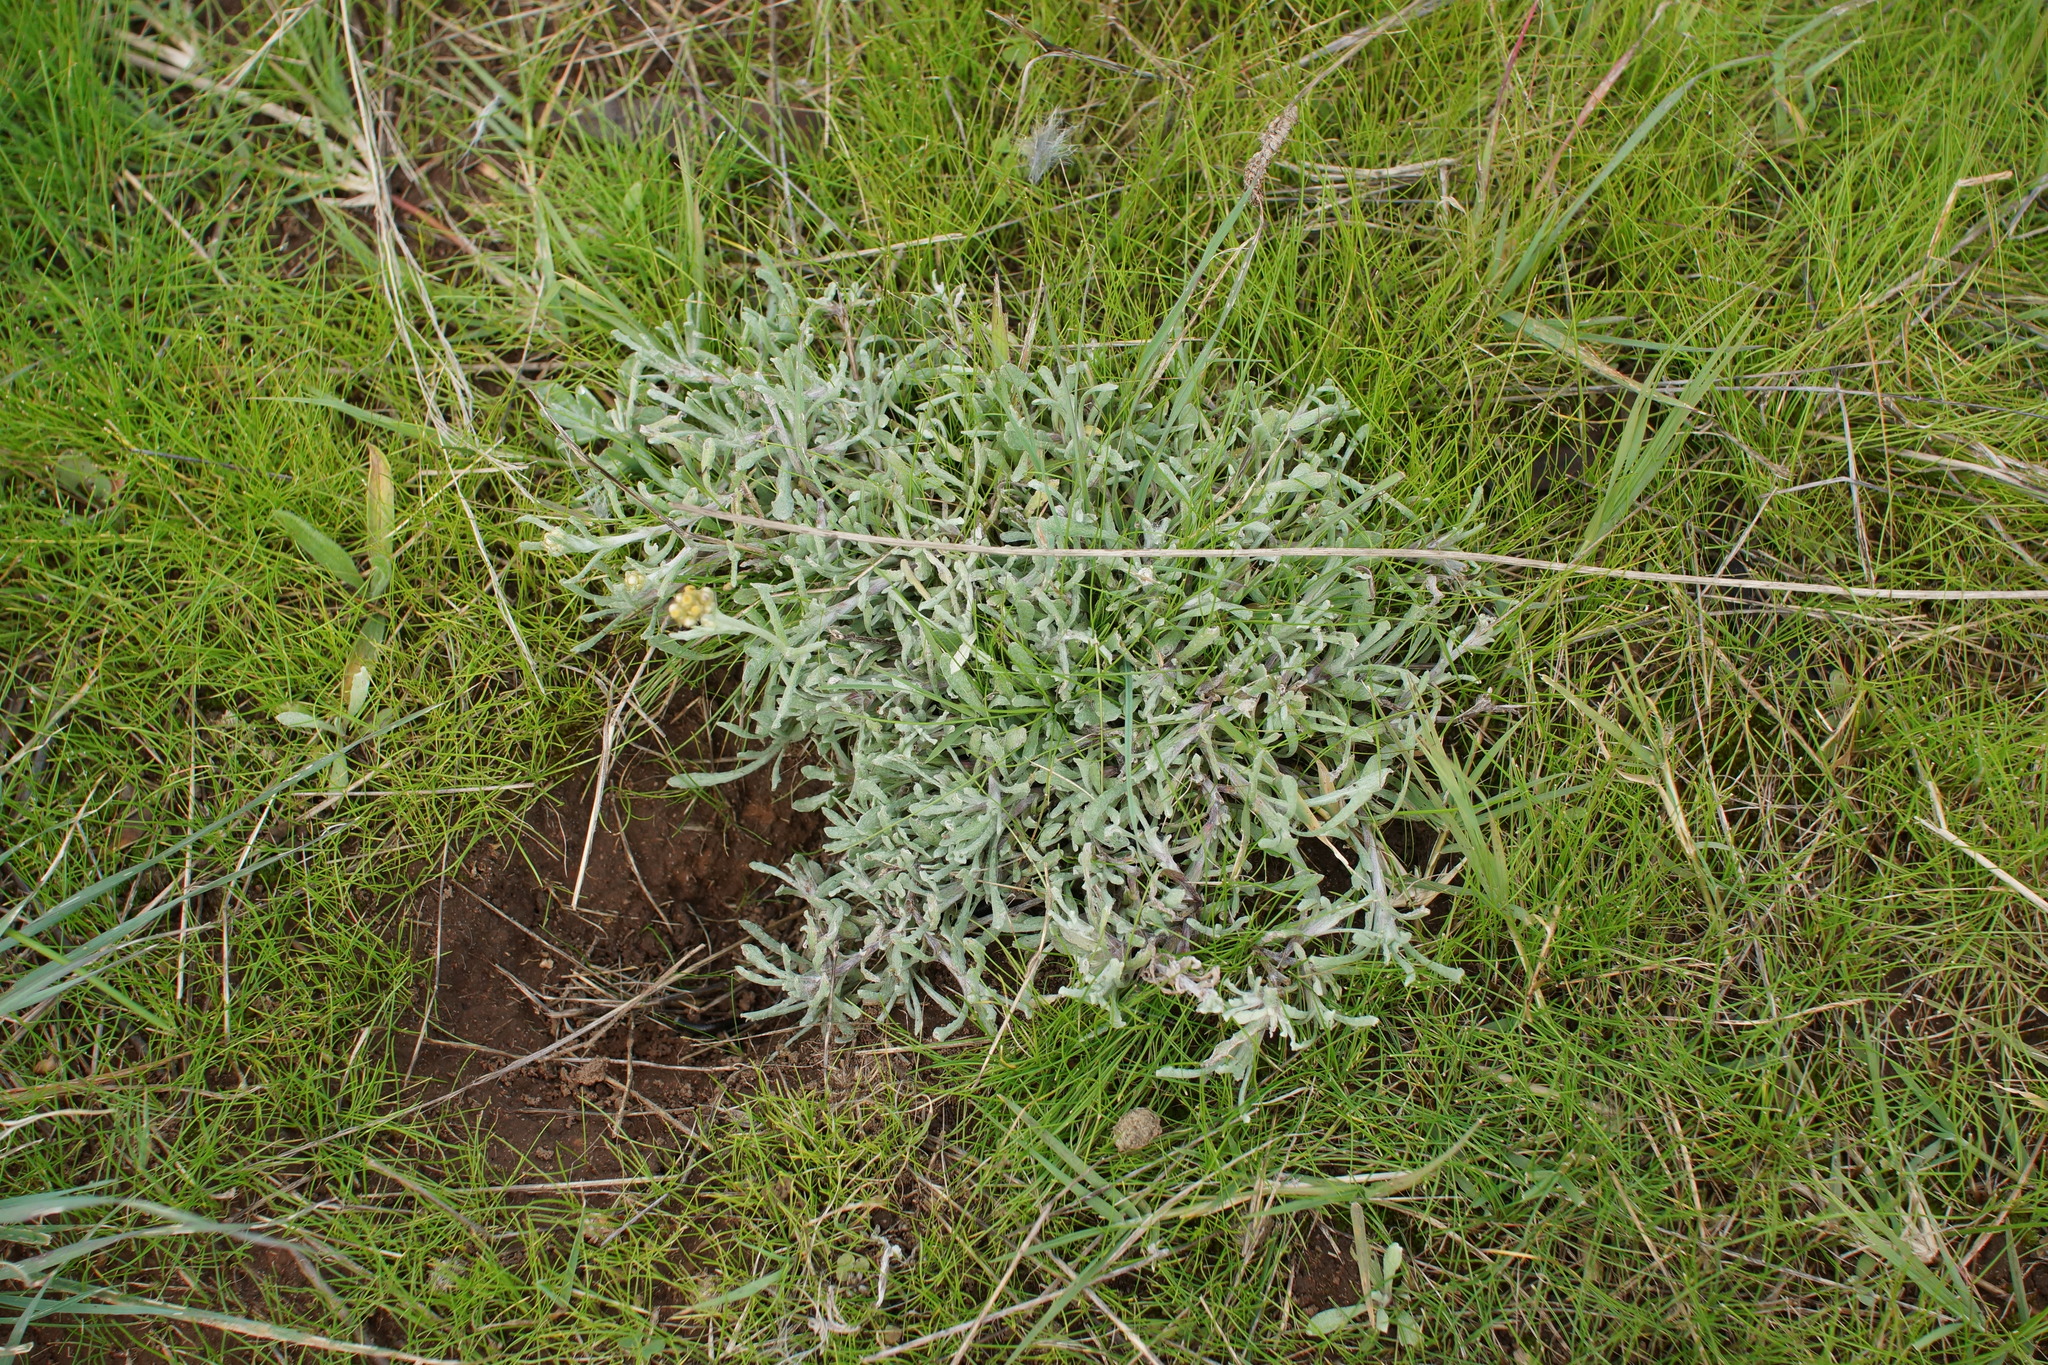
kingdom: Plantae
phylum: Tracheophyta
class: Magnoliopsida
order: Asterales
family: Asteraceae
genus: Helichrysum
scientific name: Helichrysum luteoalbum
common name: Daisy
